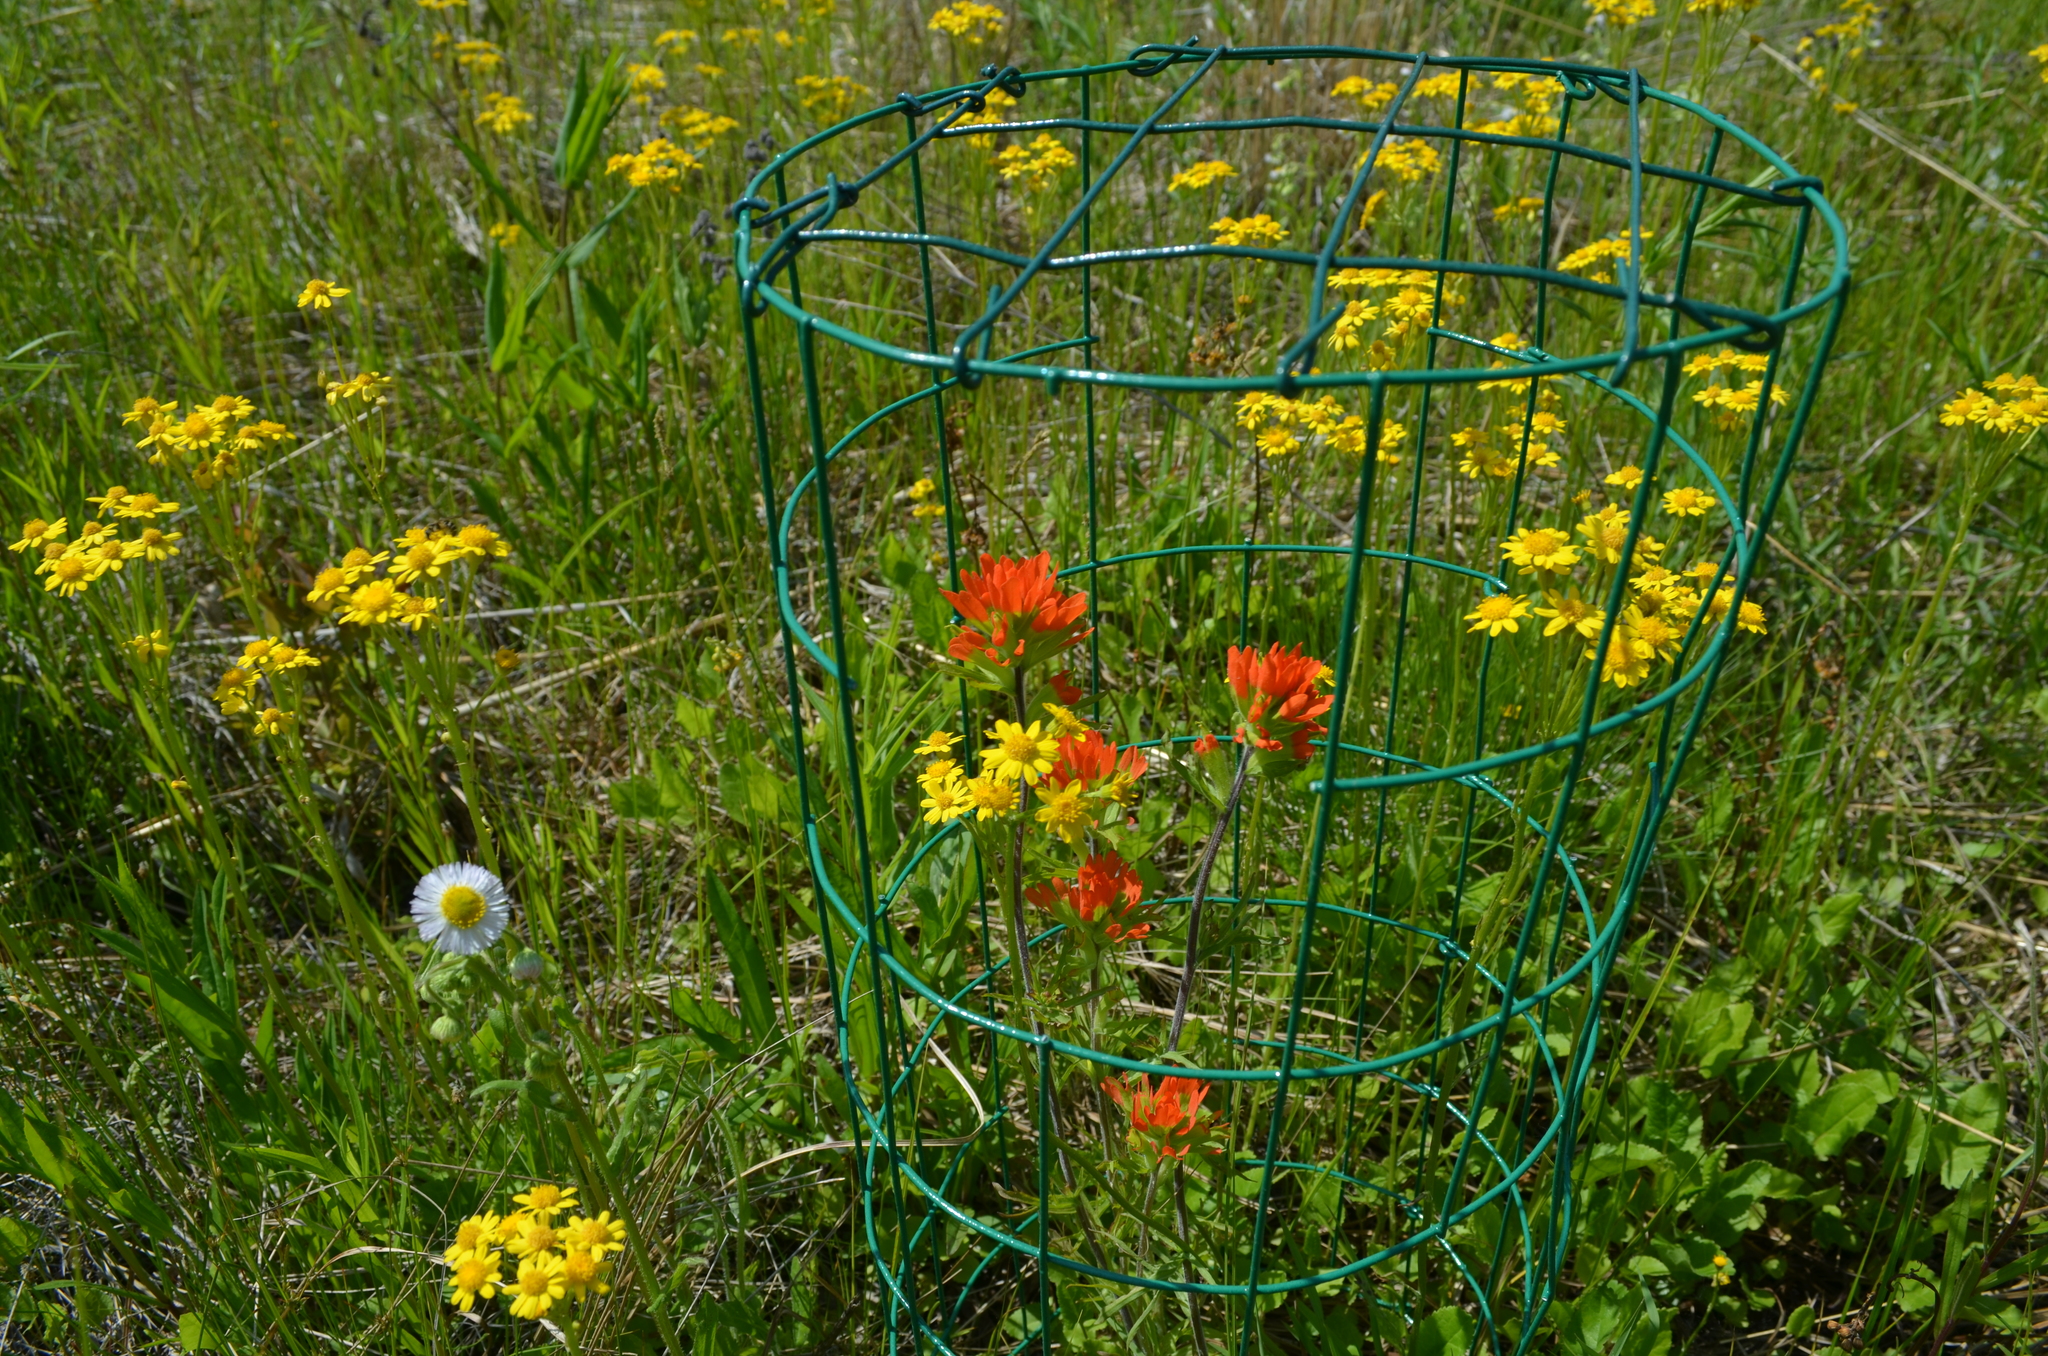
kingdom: Plantae
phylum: Tracheophyta
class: Magnoliopsida
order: Lamiales
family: Orobanchaceae
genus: Castilleja
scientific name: Castilleja coccinea
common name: Scarlet paintbrush
